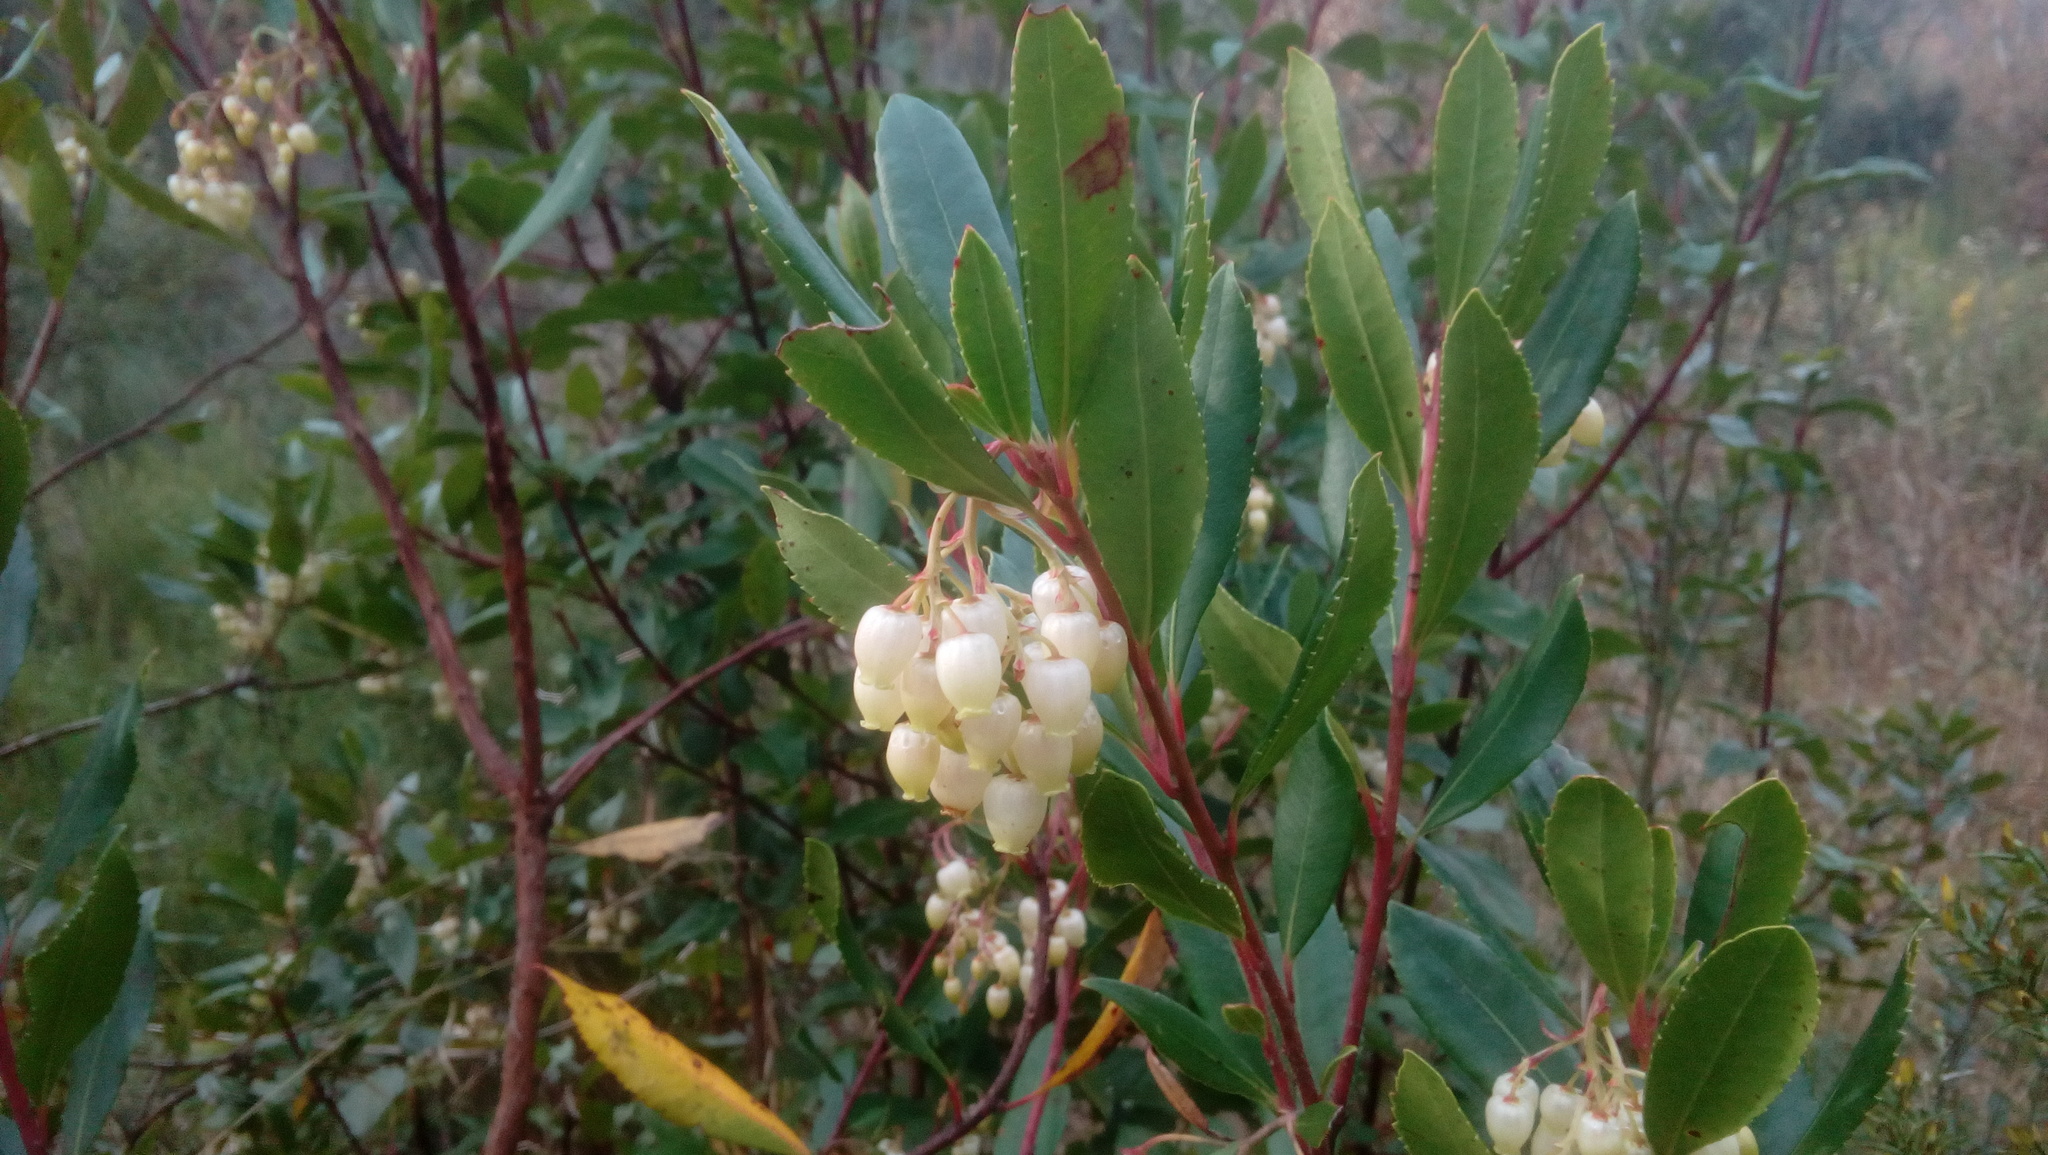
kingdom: Plantae
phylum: Tracheophyta
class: Magnoliopsida
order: Ericales
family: Ericaceae
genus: Arbutus
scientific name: Arbutus unedo
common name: Strawberry-tree
